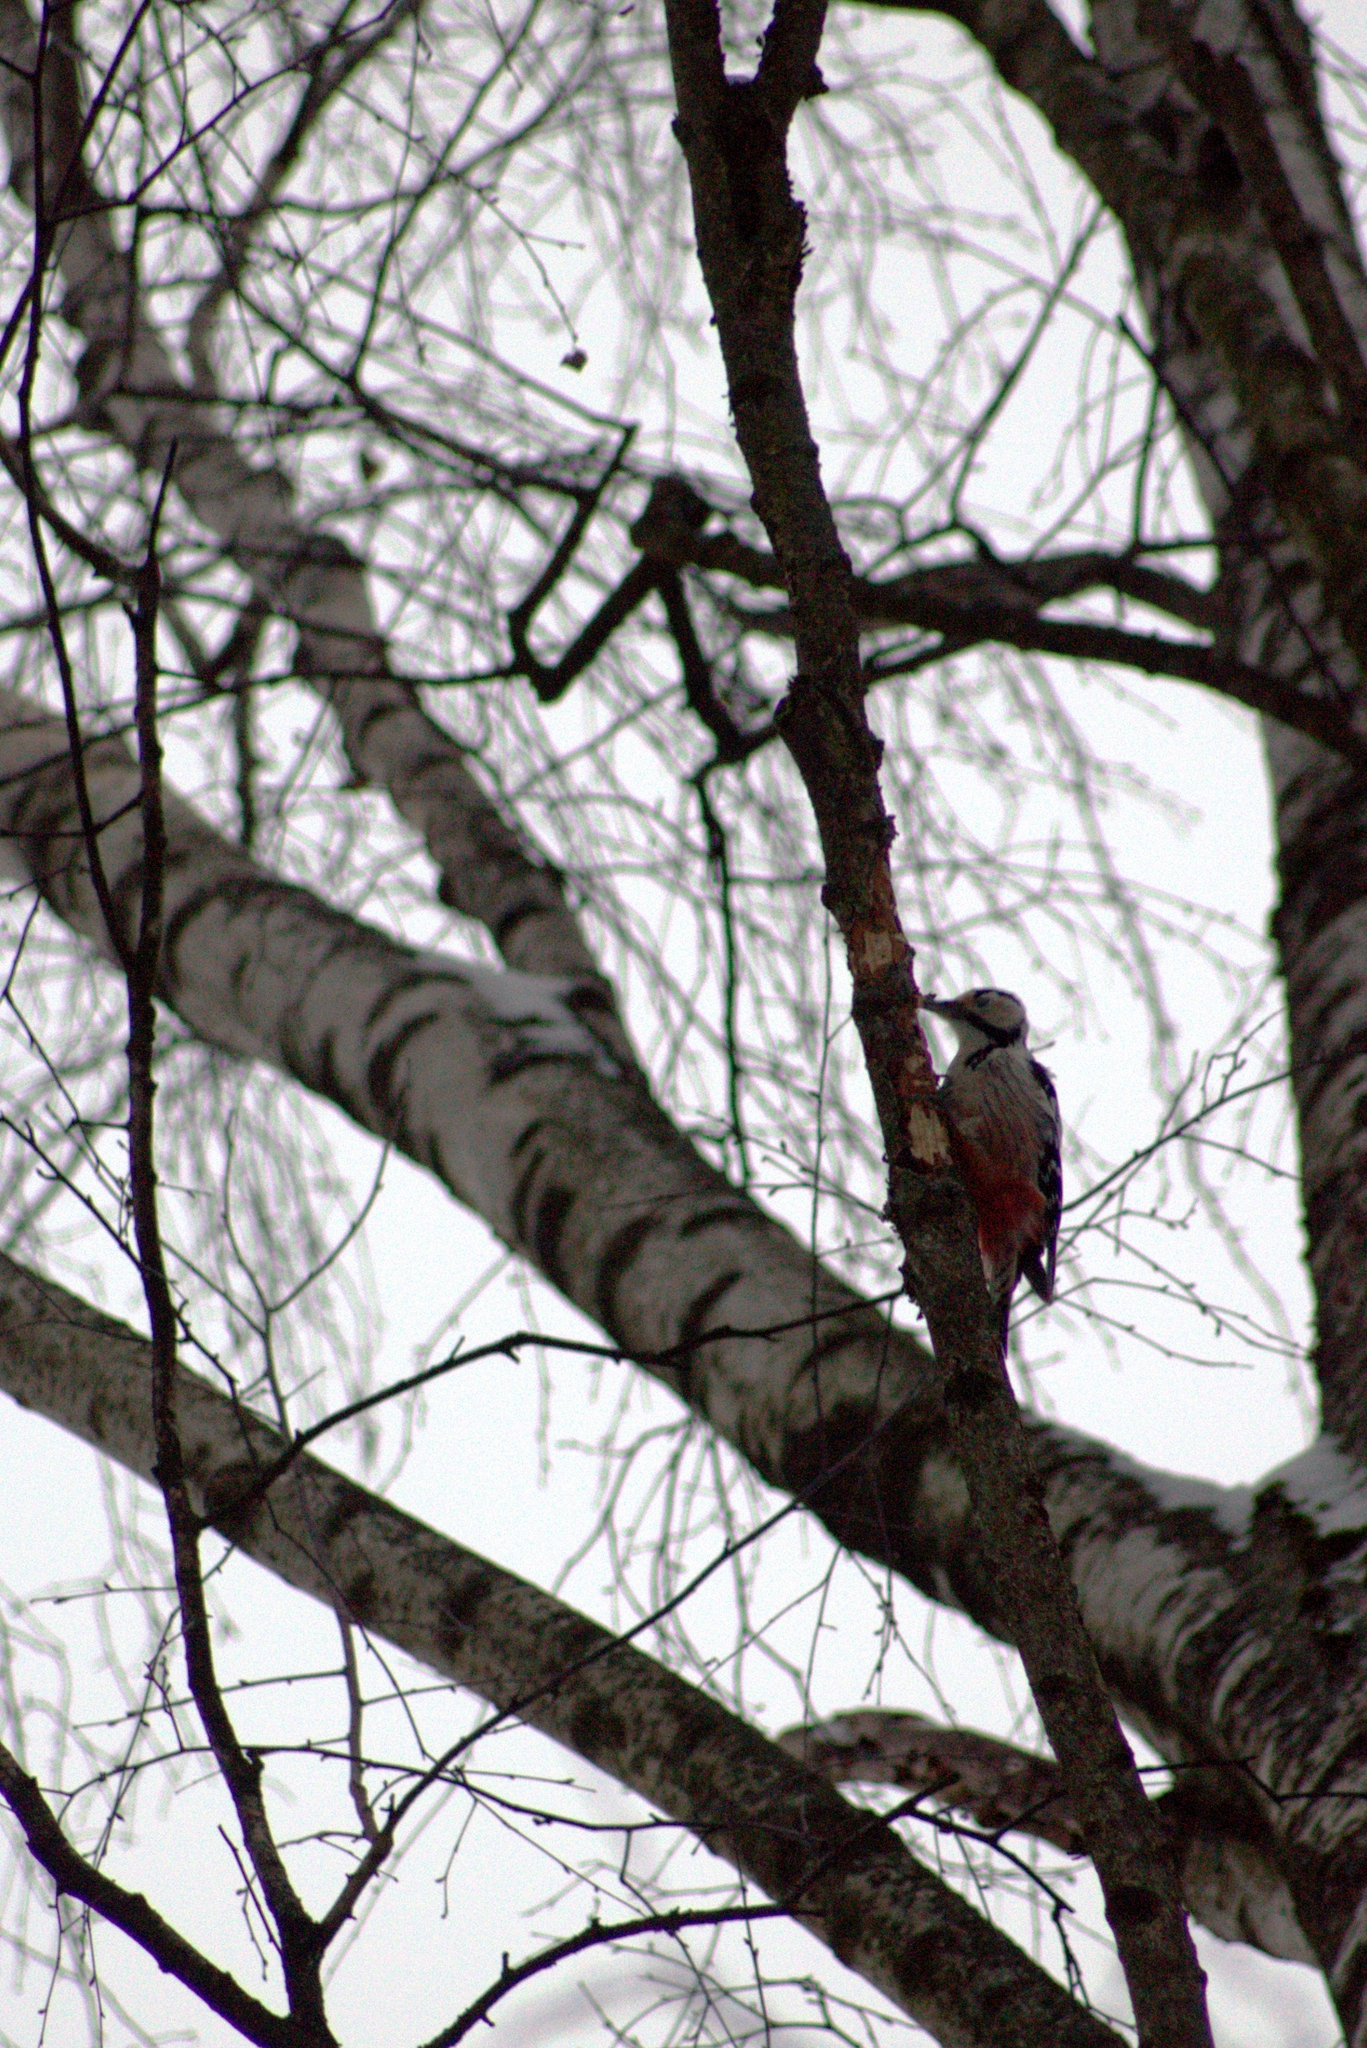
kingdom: Animalia
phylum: Chordata
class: Aves
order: Piciformes
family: Picidae
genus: Dendrocopos
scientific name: Dendrocopos leucotos
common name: White-backed woodpecker
